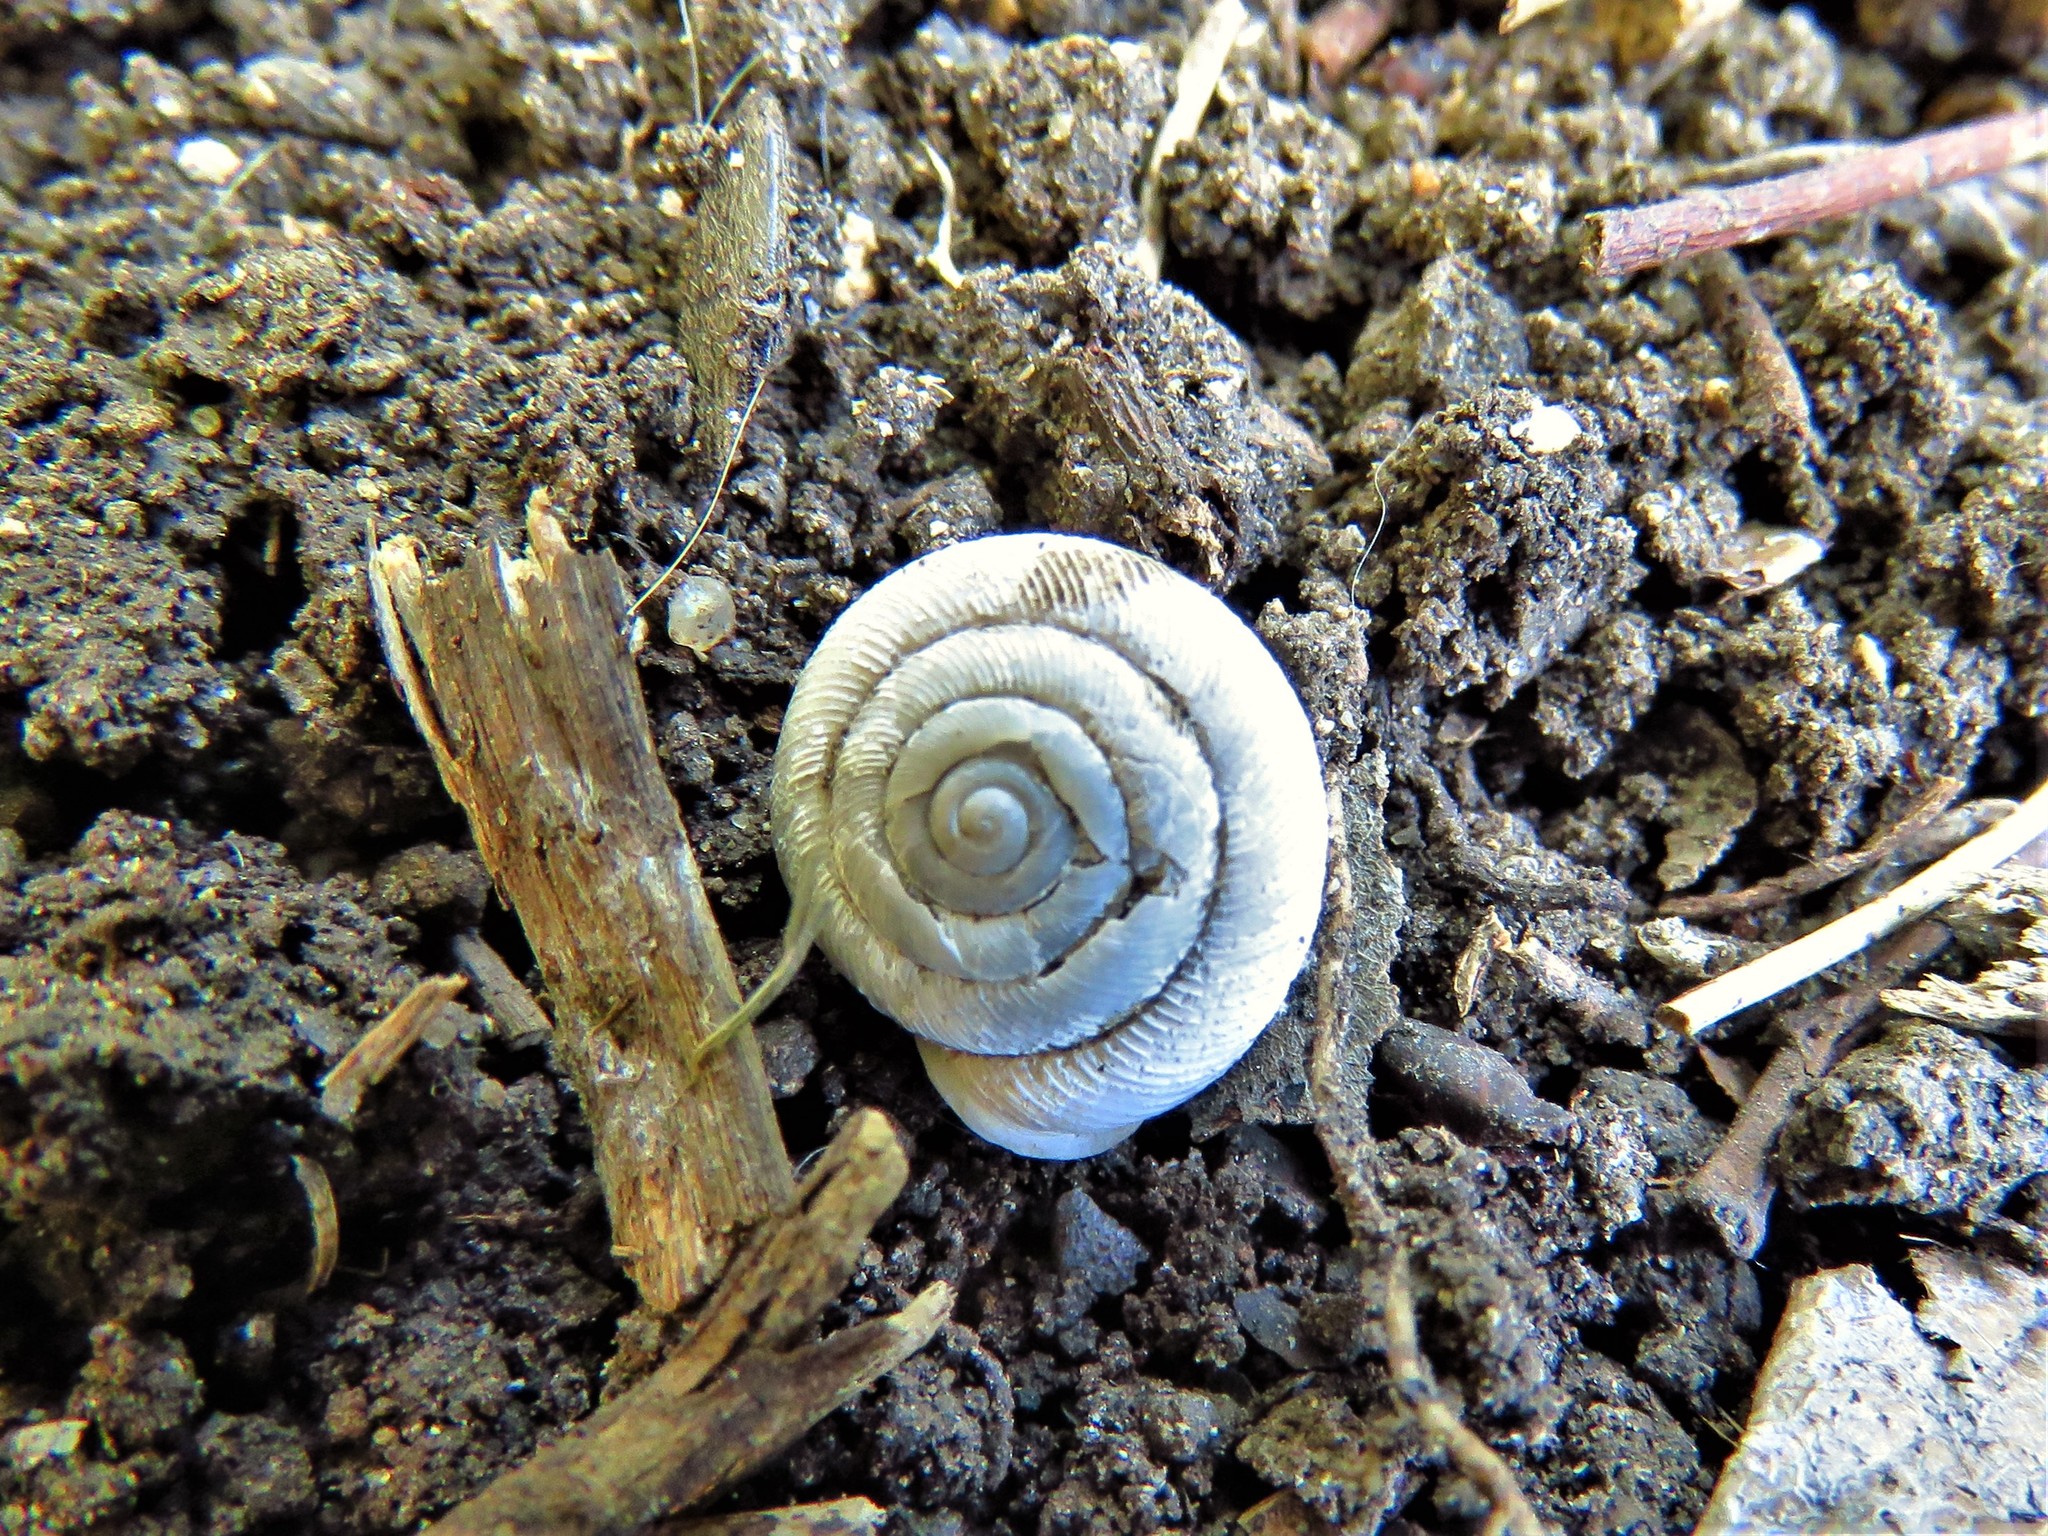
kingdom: Animalia
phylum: Mollusca
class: Gastropoda
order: Stylommatophora
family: Polygyridae
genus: Linisa
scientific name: Linisa texasiana
